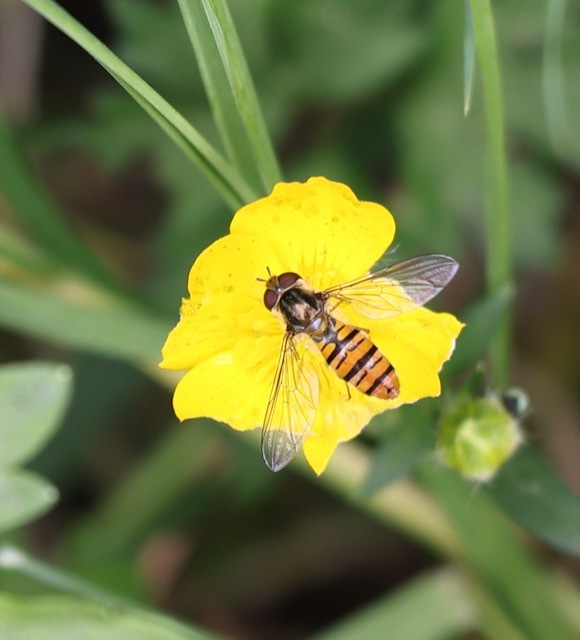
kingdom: Animalia
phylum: Arthropoda
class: Insecta
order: Diptera
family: Syrphidae
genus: Episyrphus
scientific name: Episyrphus balteatus
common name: Marmalade hoverfly
